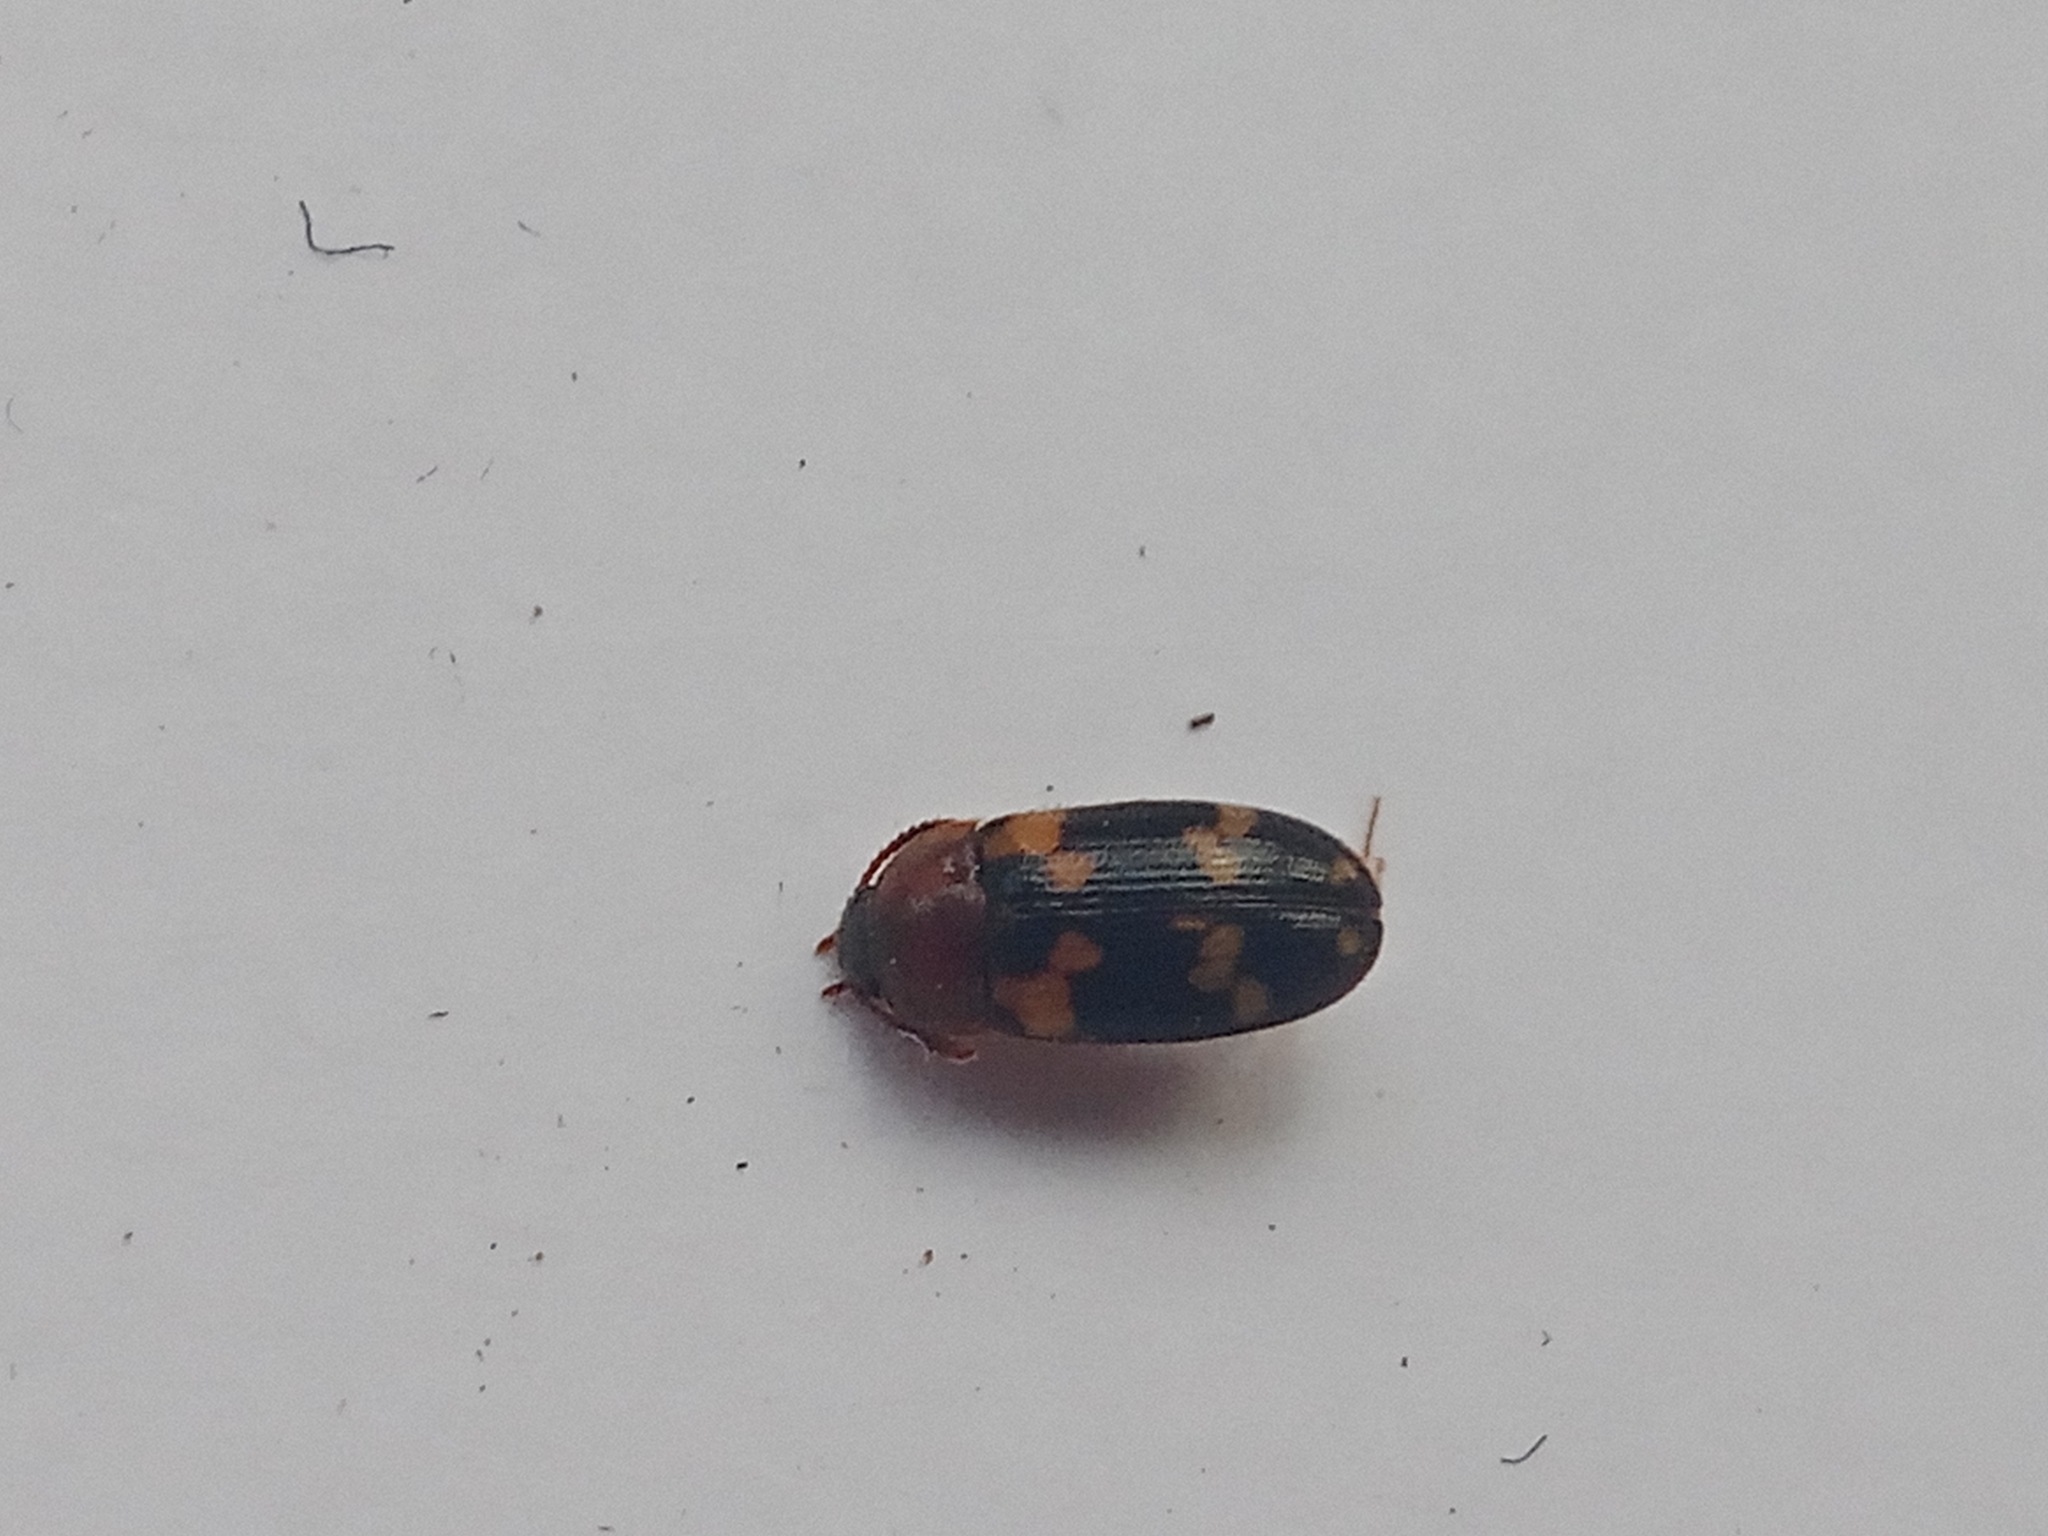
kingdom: Animalia
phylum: Arthropoda
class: Insecta
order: Coleoptera
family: Mycetophagidae
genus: Mycetophagus
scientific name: Mycetophagus piceus
